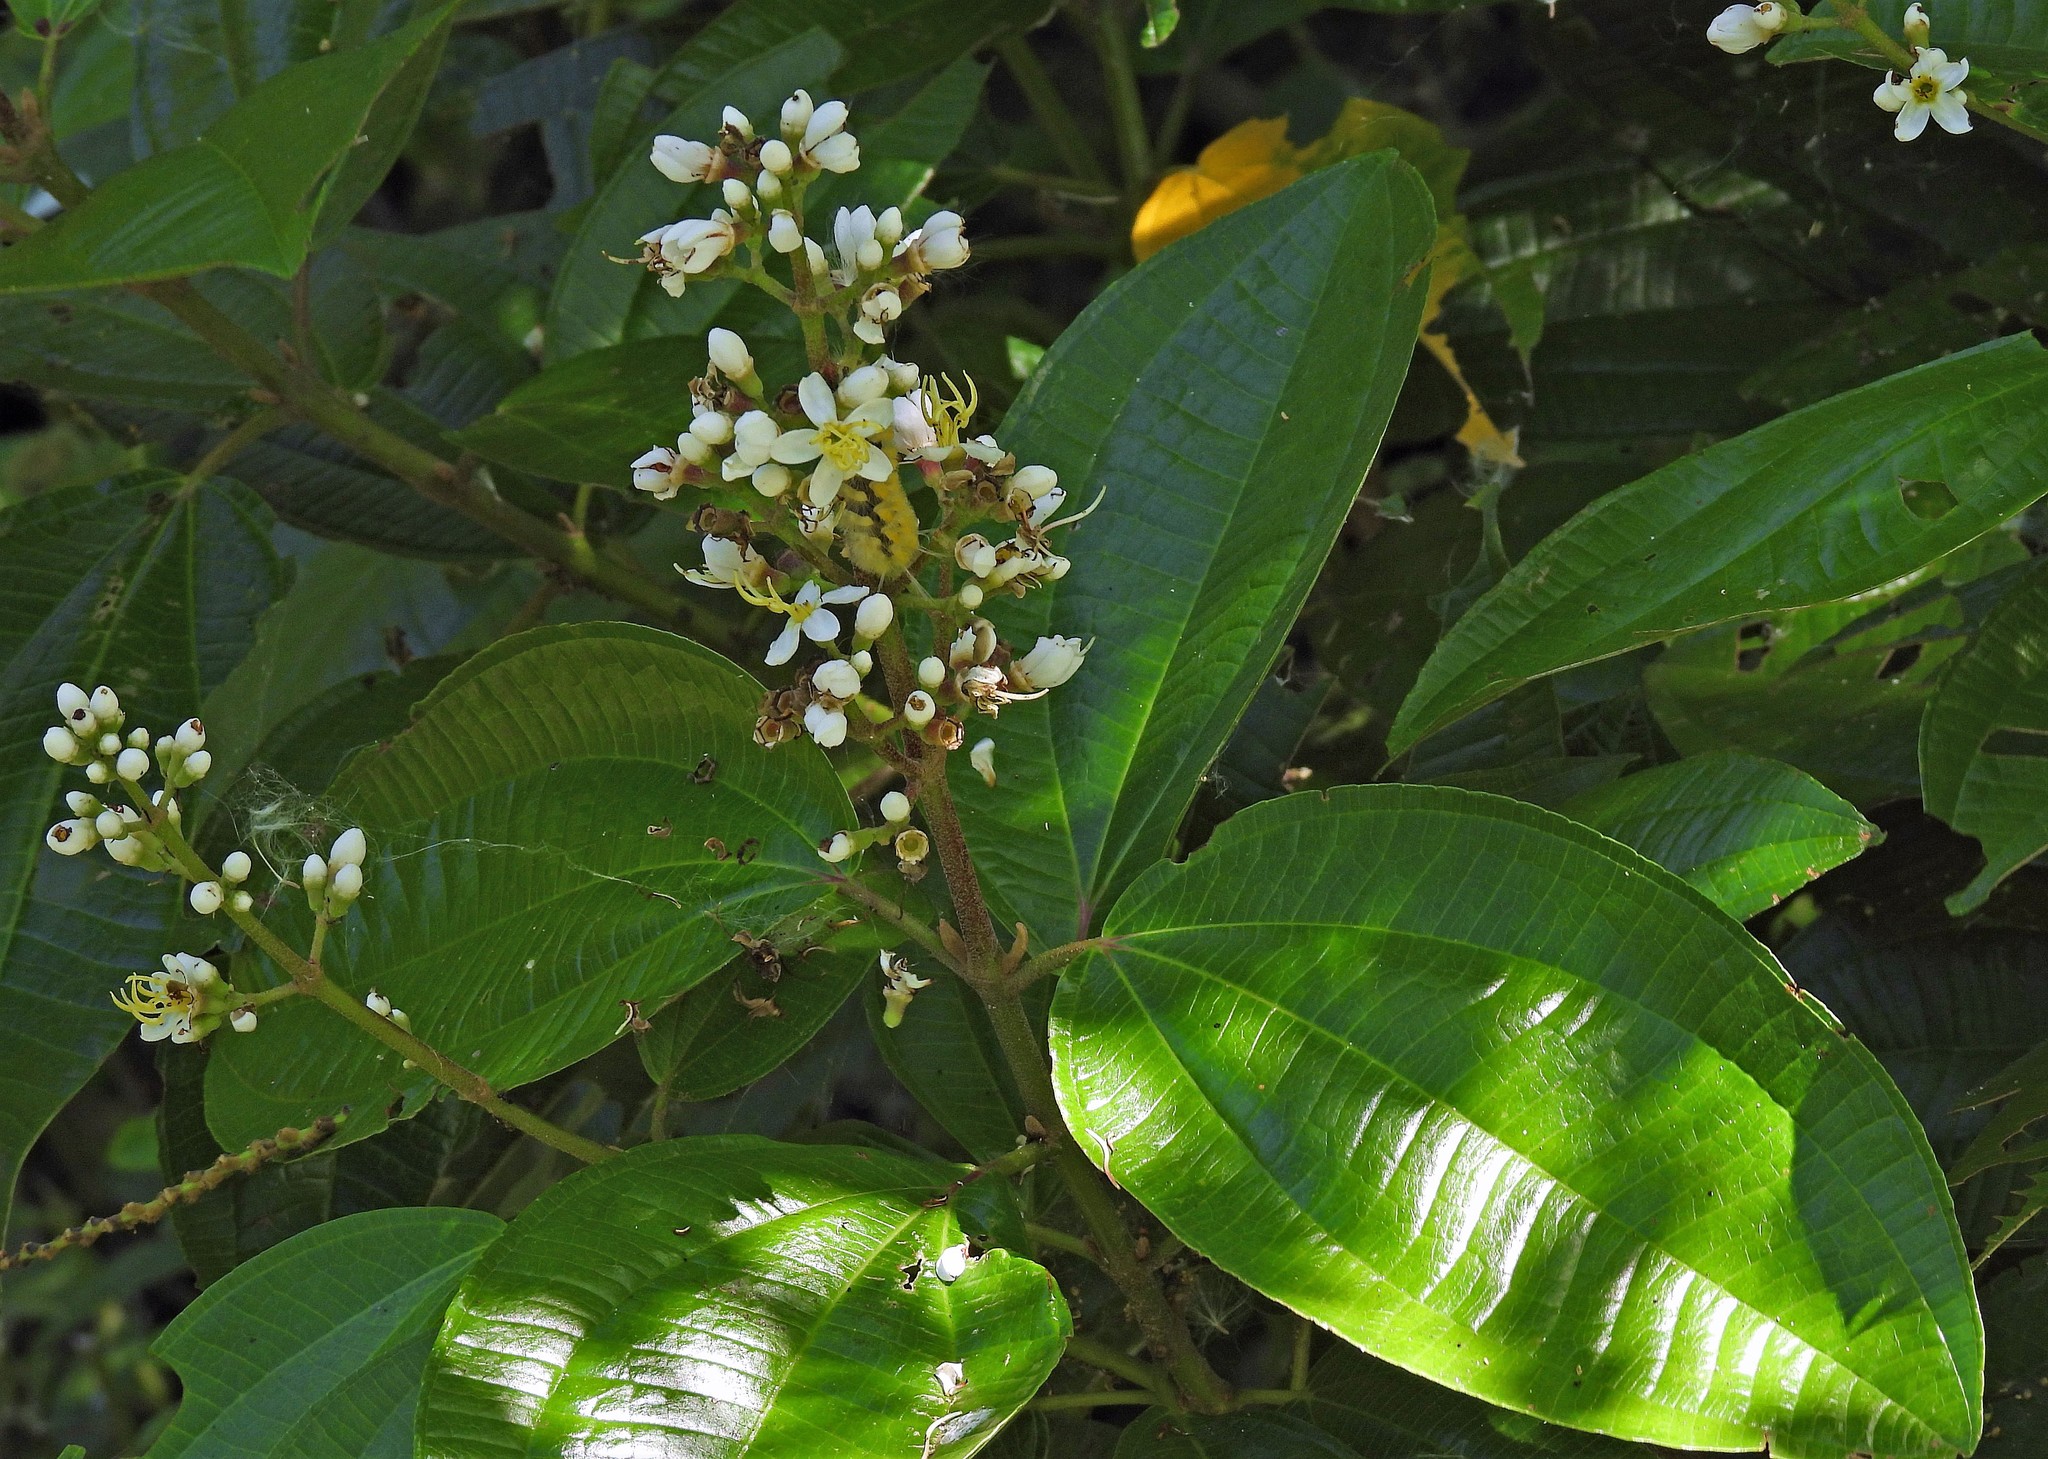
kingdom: Plantae
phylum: Tracheophyta
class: Magnoliopsida
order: Myrtales
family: Melastomataceae
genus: Miconia
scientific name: Miconia chamissois
